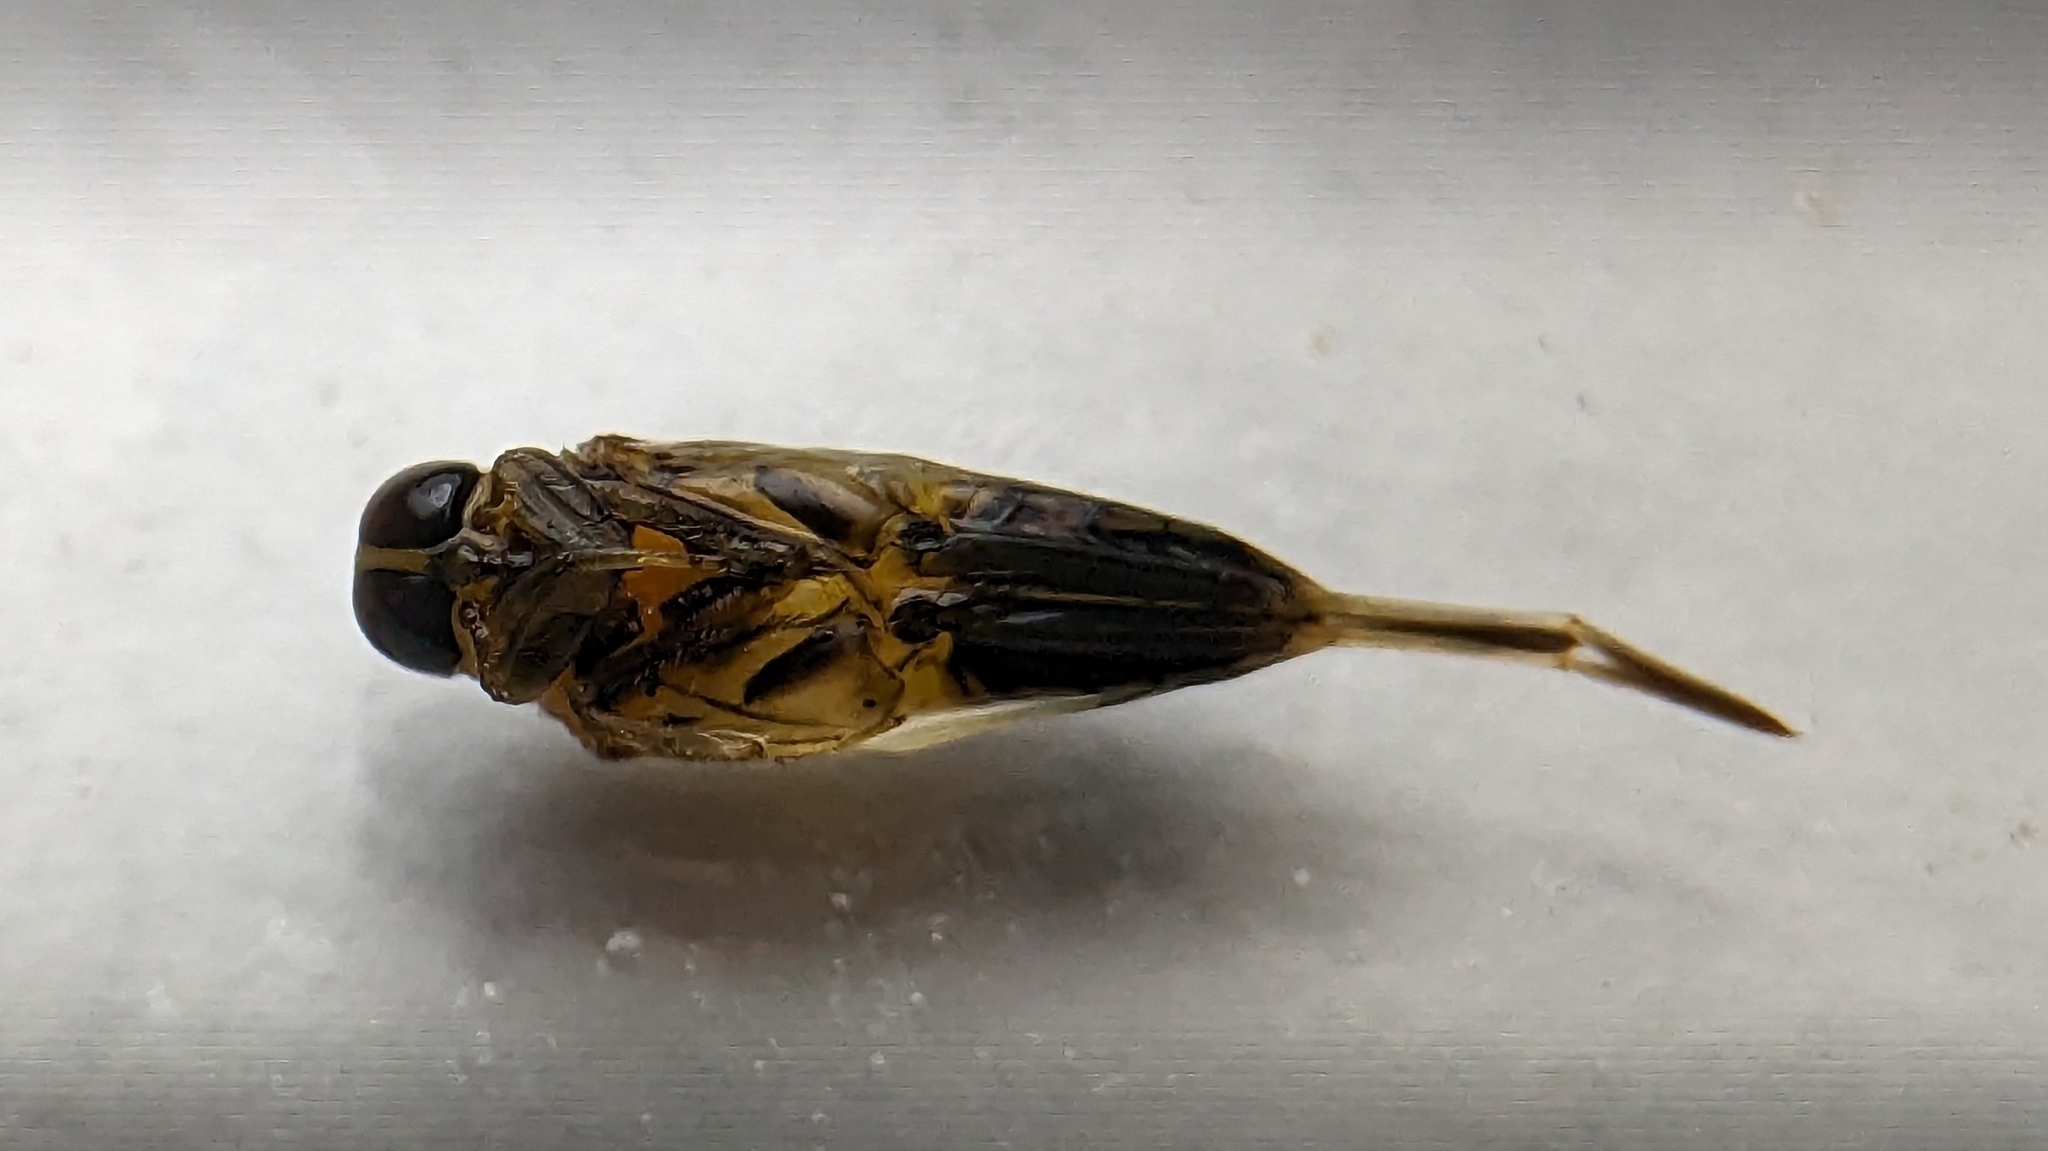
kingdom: Animalia
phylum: Arthropoda
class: Insecta
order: Hemiptera
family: Notonectidae
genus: Buenoa
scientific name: Buenoa
